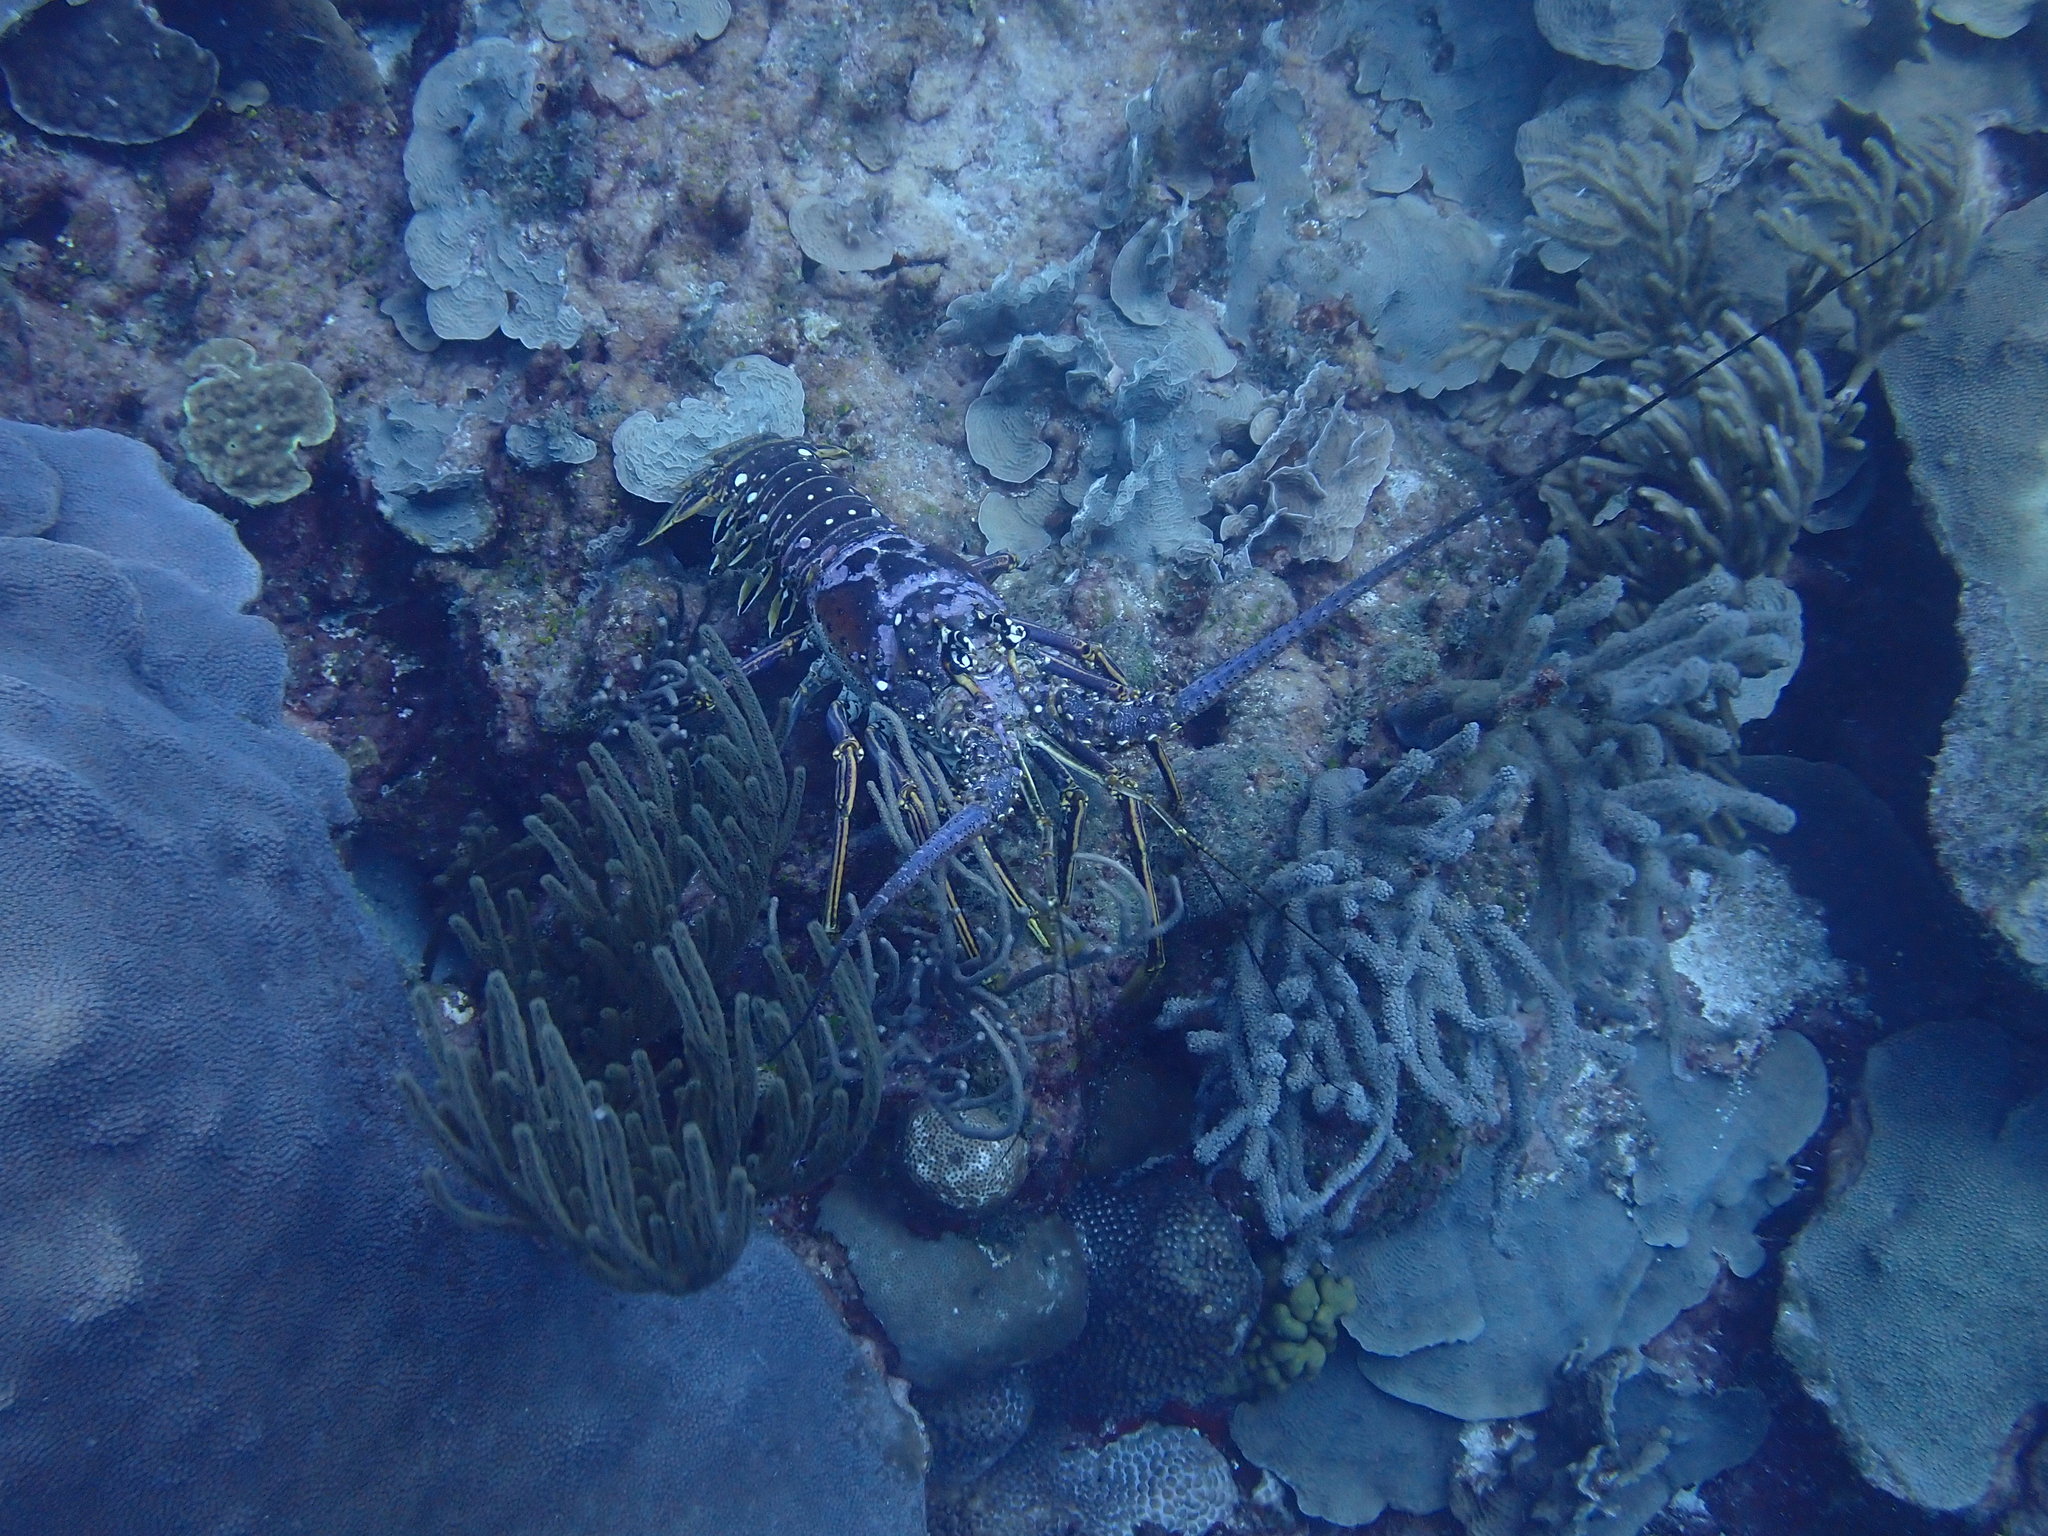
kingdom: Animalia
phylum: Arthropoda
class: Malacostraca
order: Decapoda
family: Palinuridae
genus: Panulirus
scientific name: Panulirus argus
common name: Caribbean spiny lobster
